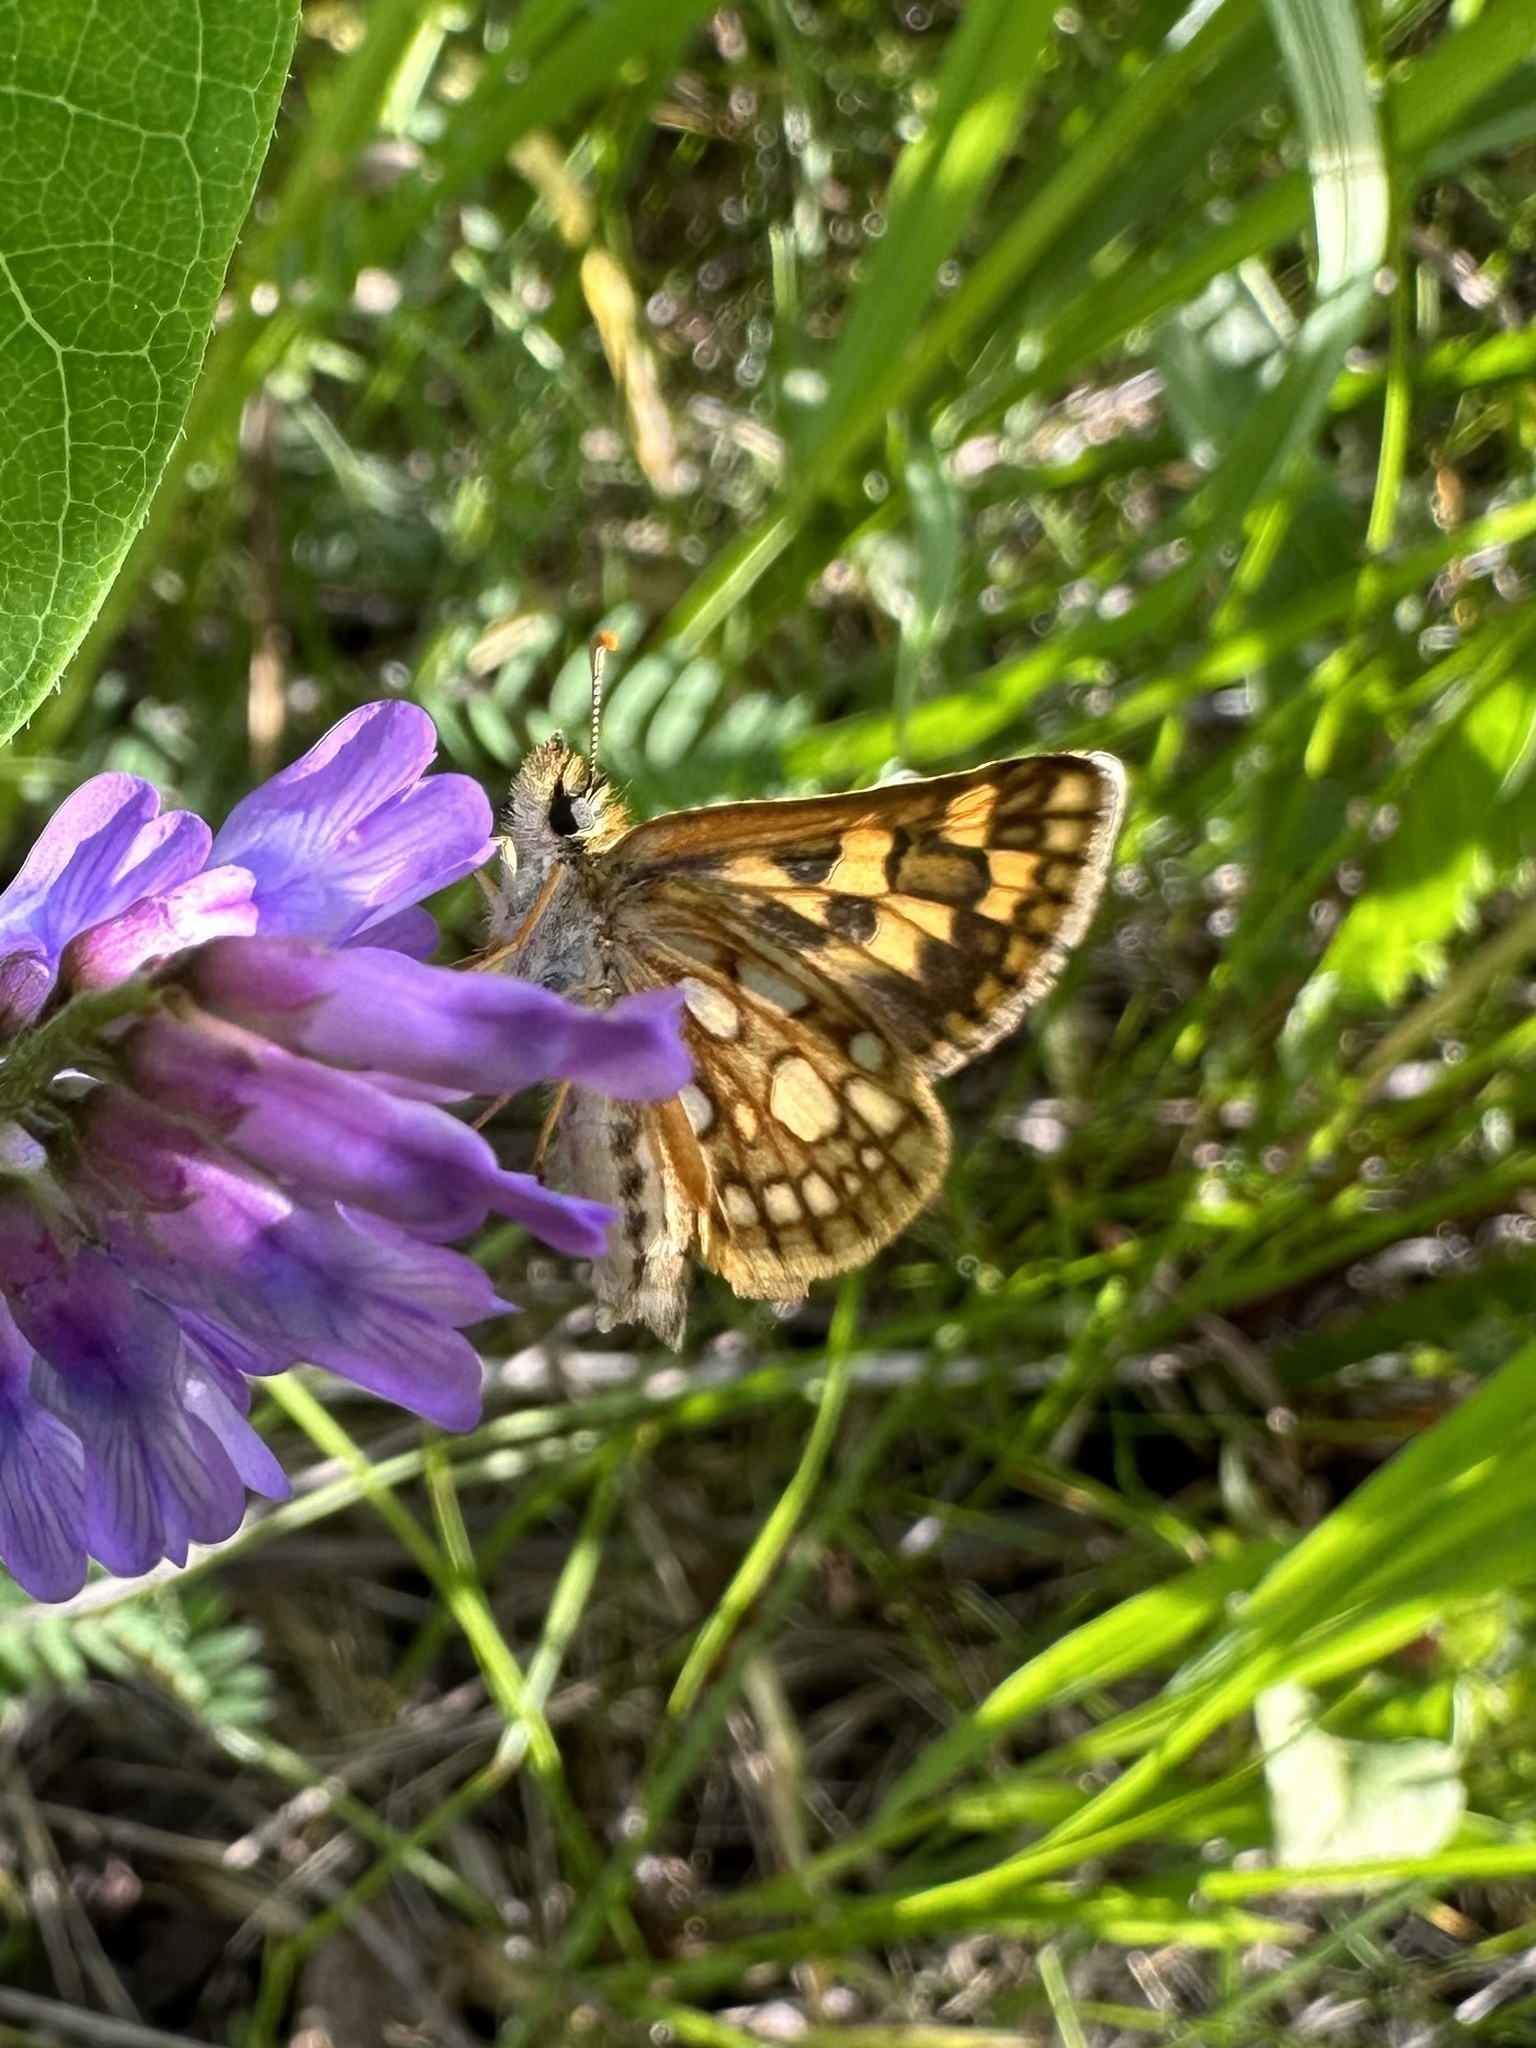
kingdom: Animalia
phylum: Arthropoda
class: Insecta
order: Lepidoptera
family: Hesperiidae
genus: Carterocephalus
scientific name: Carterocephalus mandan
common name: Arctic skipperling
